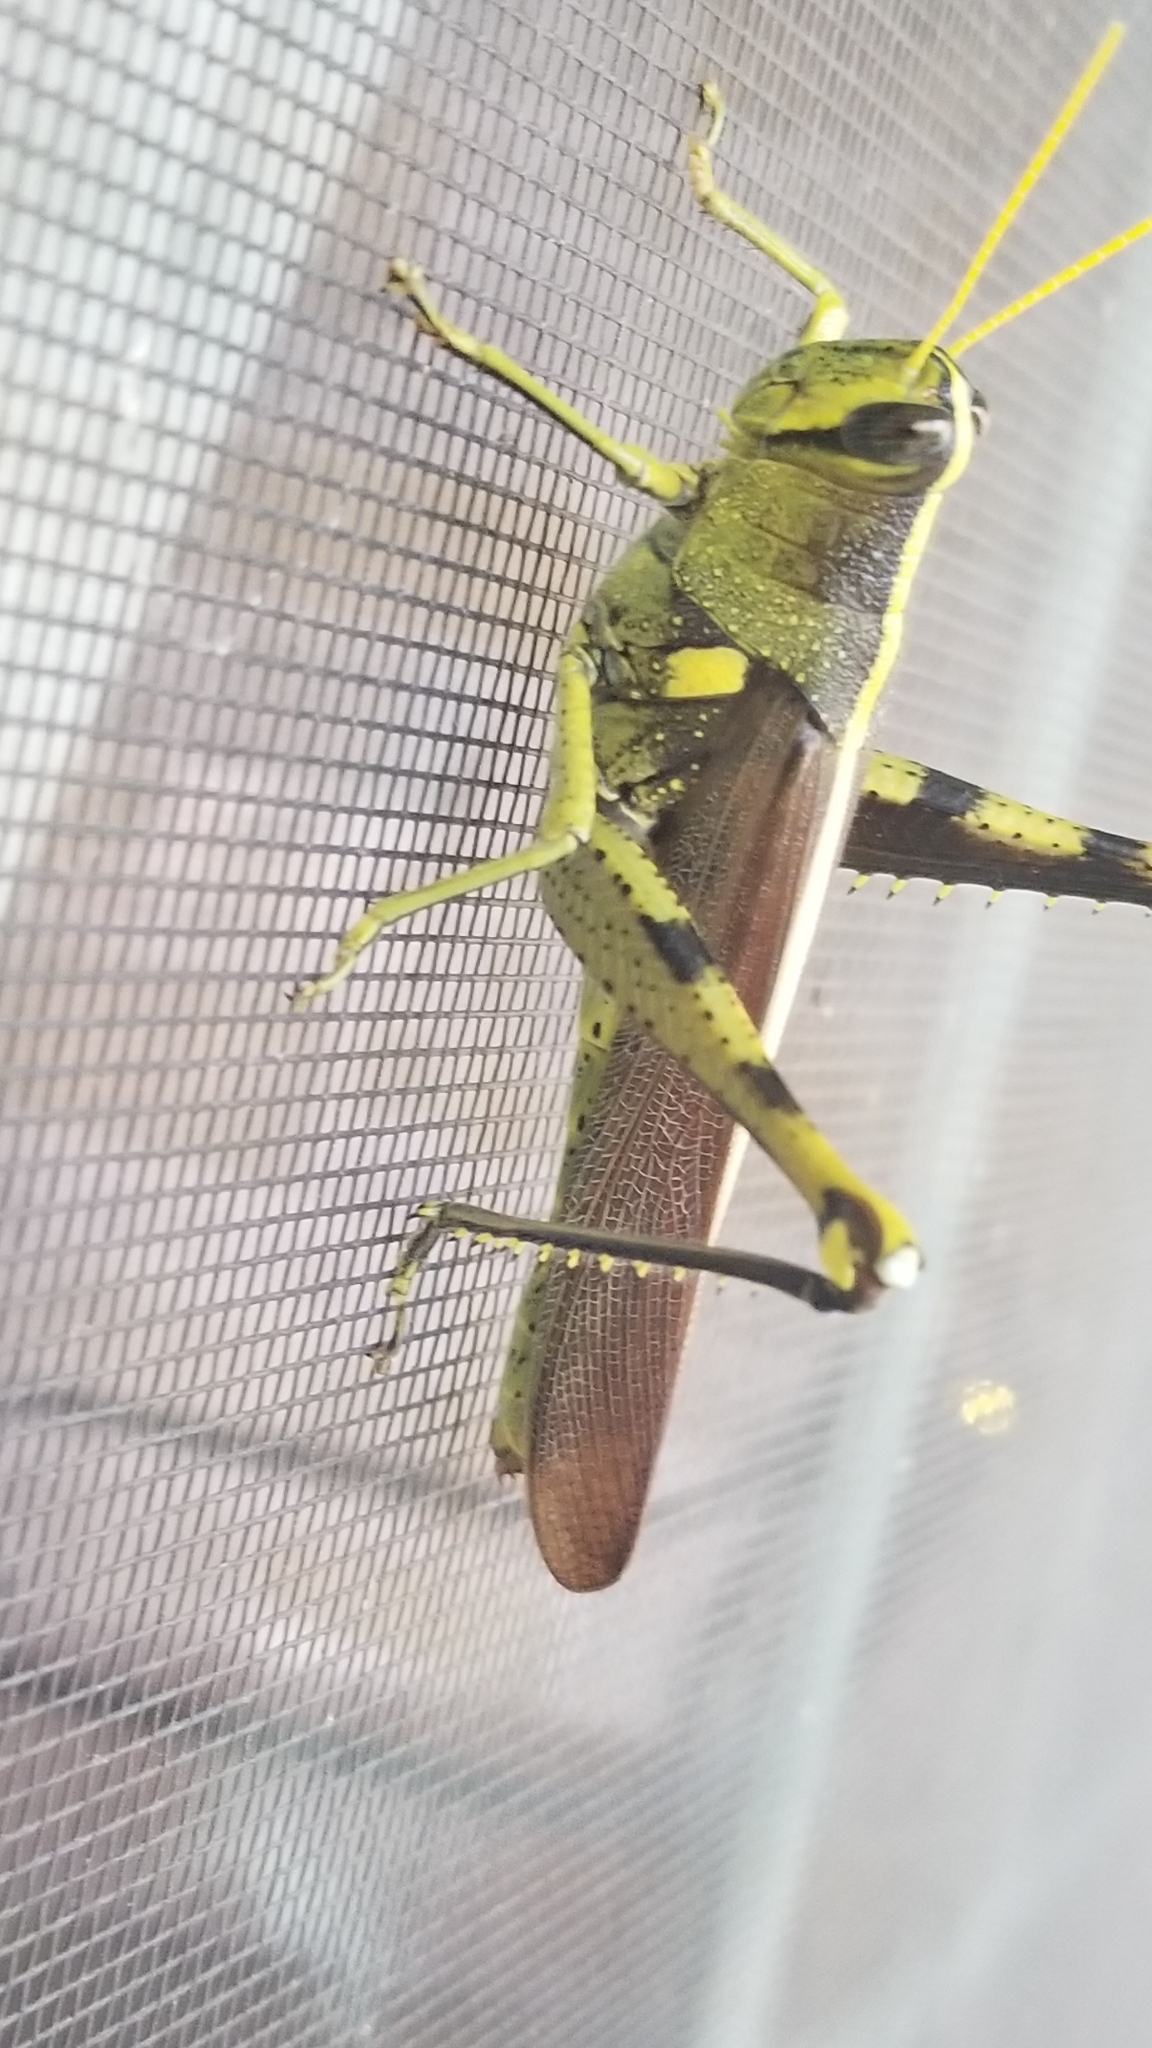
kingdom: Animalia
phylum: Arthropoda
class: Insecta
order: Orthoptera
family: Acrididae
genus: Schistocerca
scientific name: Schistocerca obscura
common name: Obscure bird grasshopper
